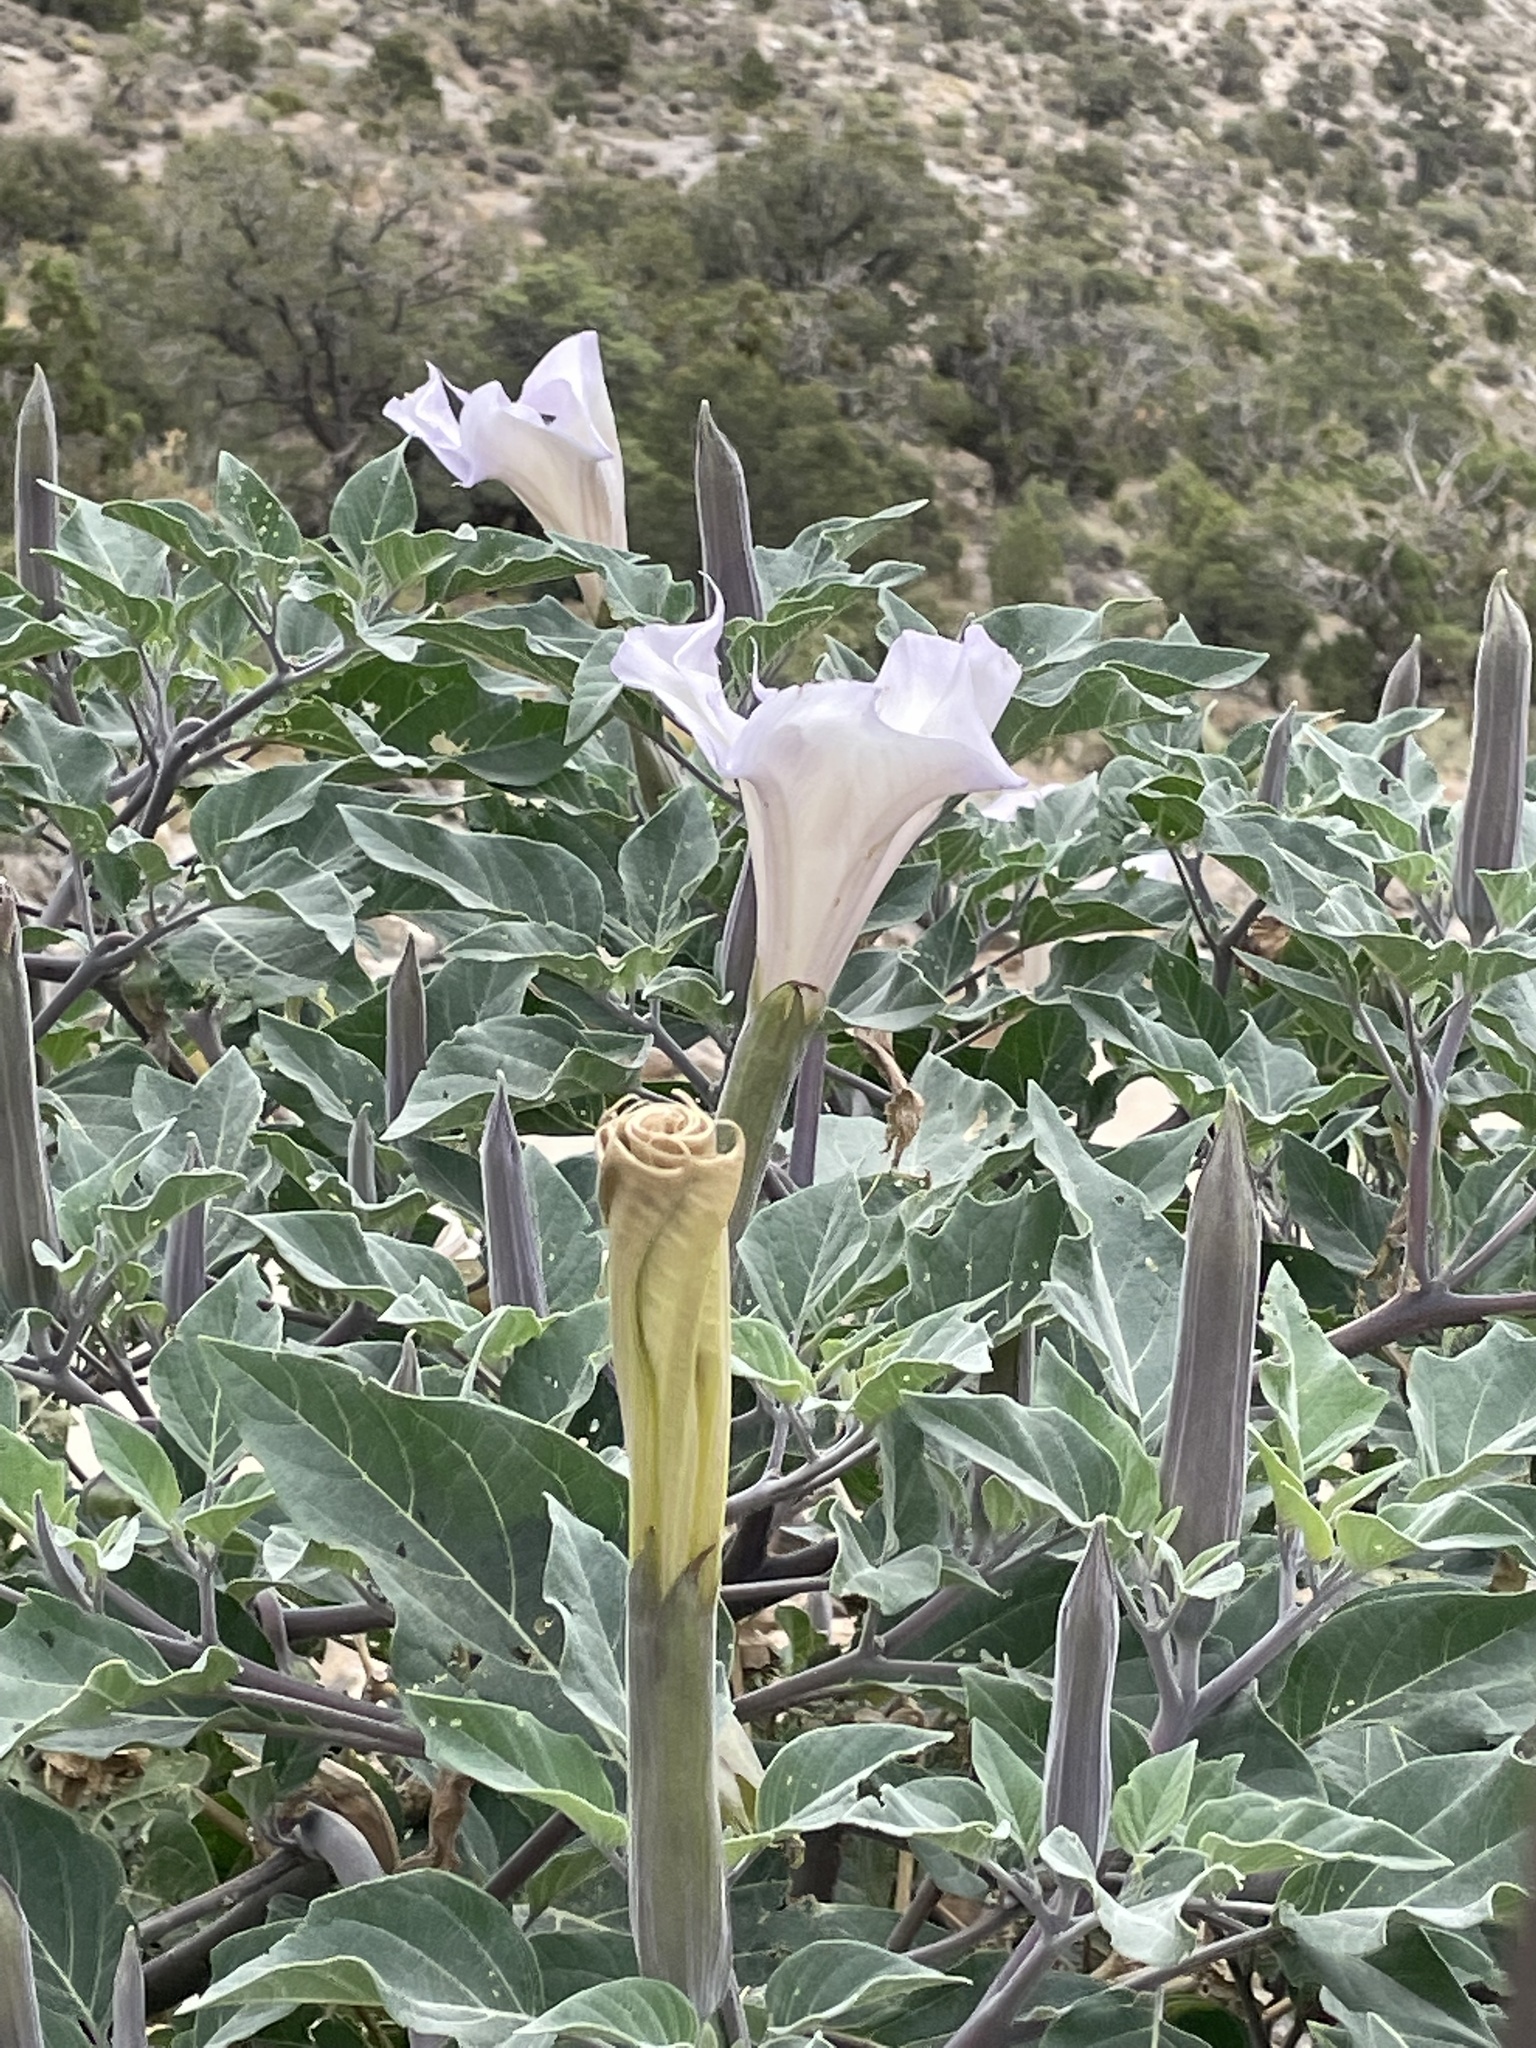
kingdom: Plantae
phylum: Tracheophyta
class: Magnoliopsida
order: Solanales
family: Solanaceae
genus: Datura
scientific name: Datura wrightii
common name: Sacred thorn-apple
